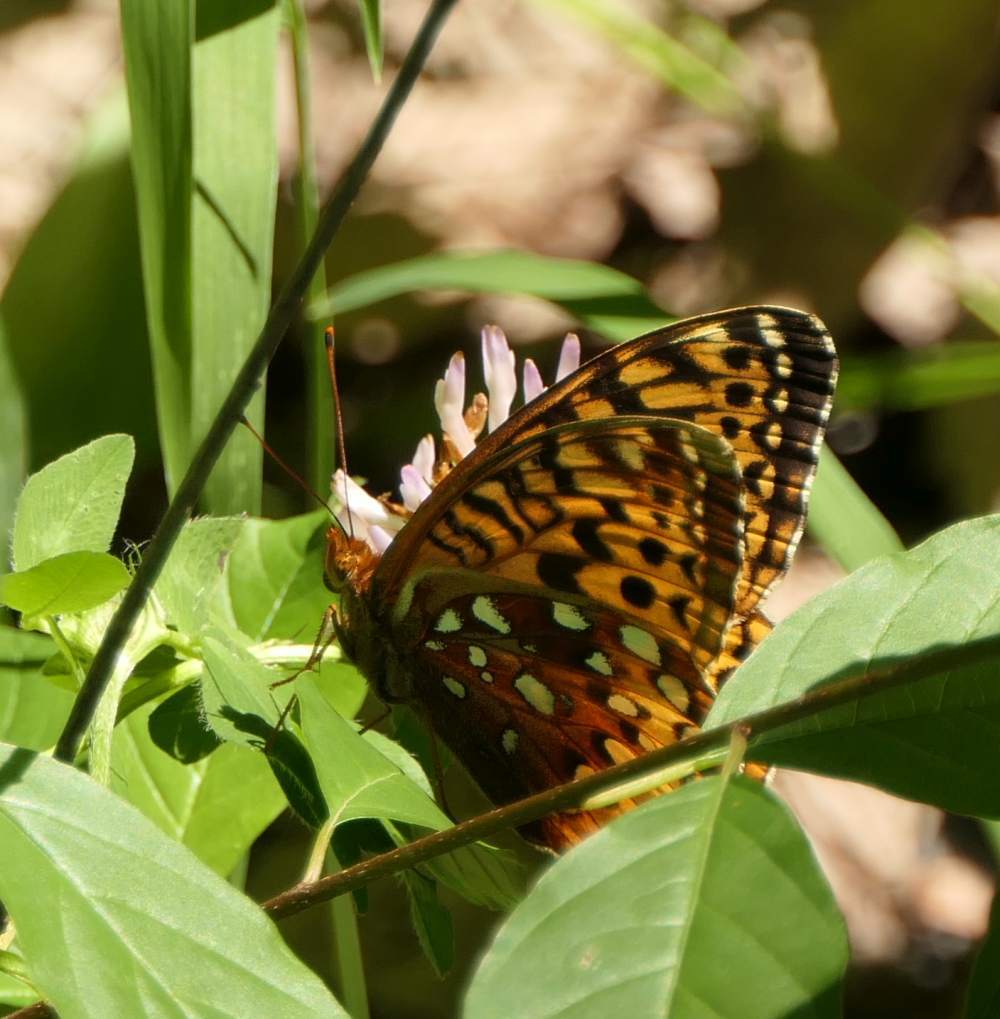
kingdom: Animalia
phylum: Arthropoda
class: Insecta
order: Lepidoptera
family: Nymphalidae
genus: Speyeria
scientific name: Speyeria cybele
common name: Great spangled fritillary
